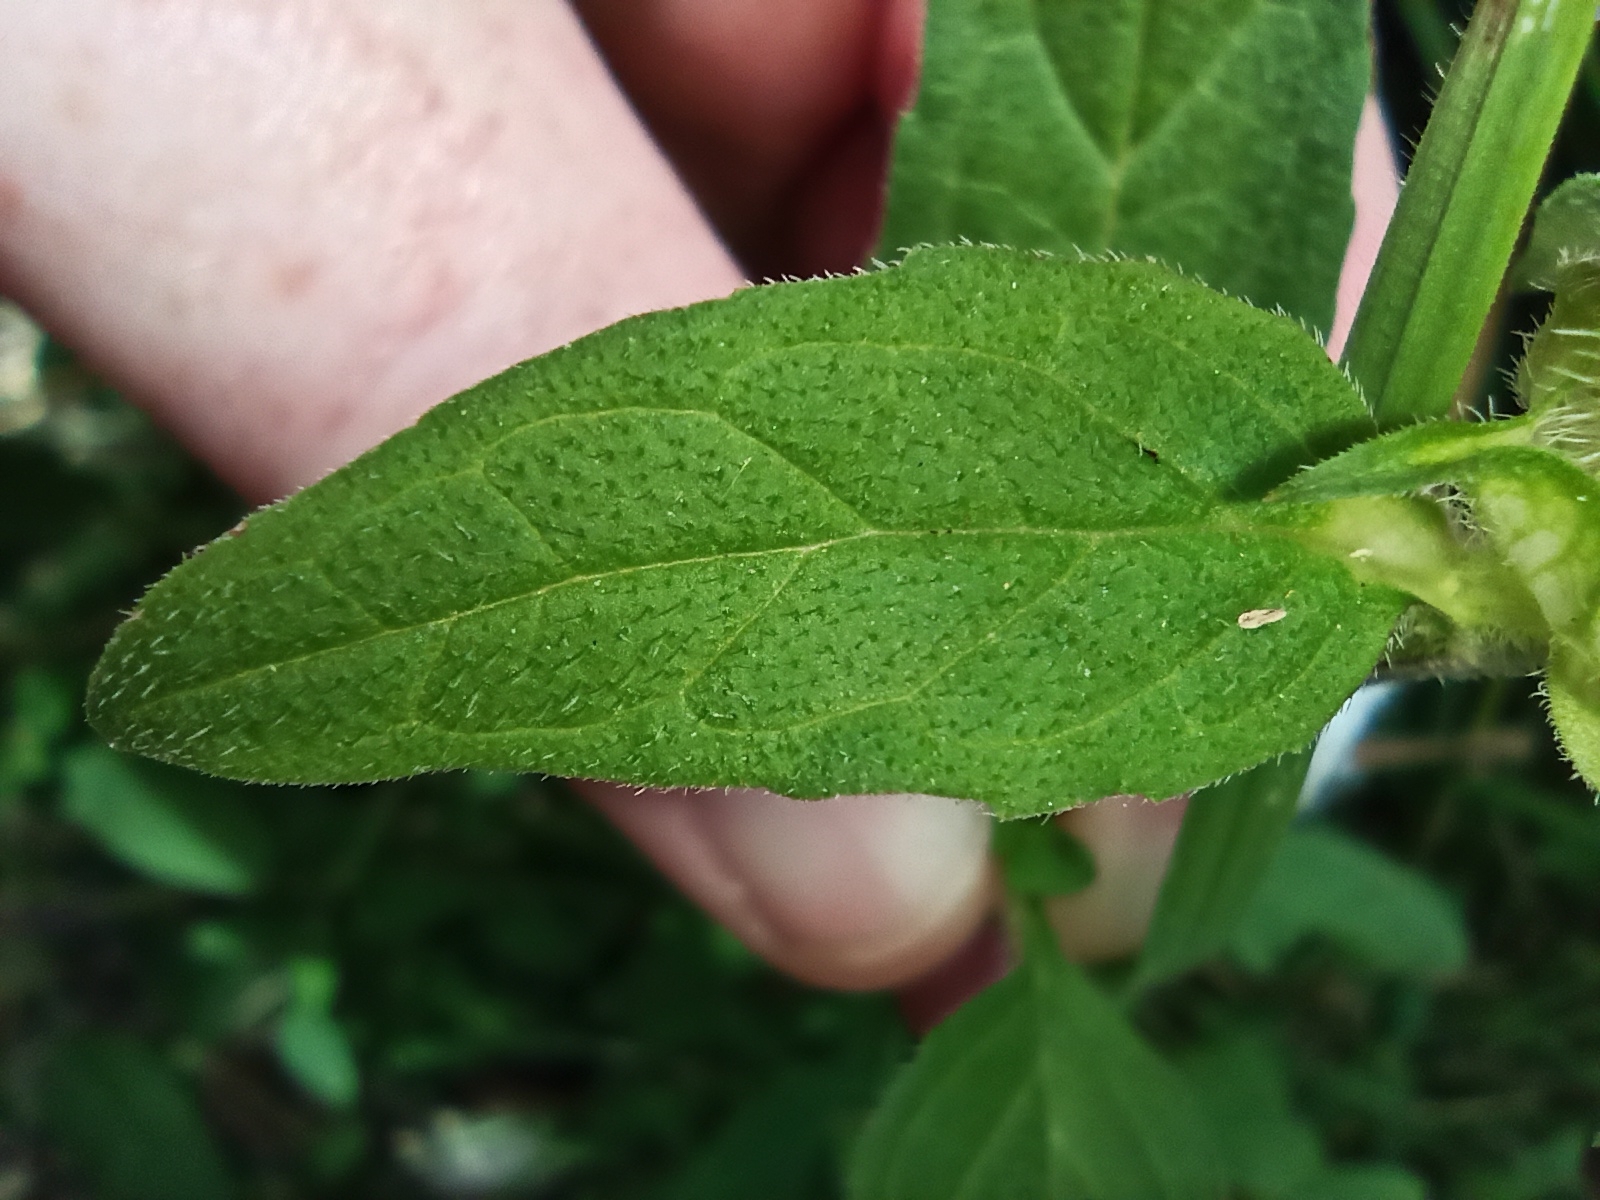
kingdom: Plantae
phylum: Tracheophyta
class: Magnoliopsida
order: Lamiales
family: Lamiaceae
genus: Prunella
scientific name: Prunella vulgaris
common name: Heal-all
